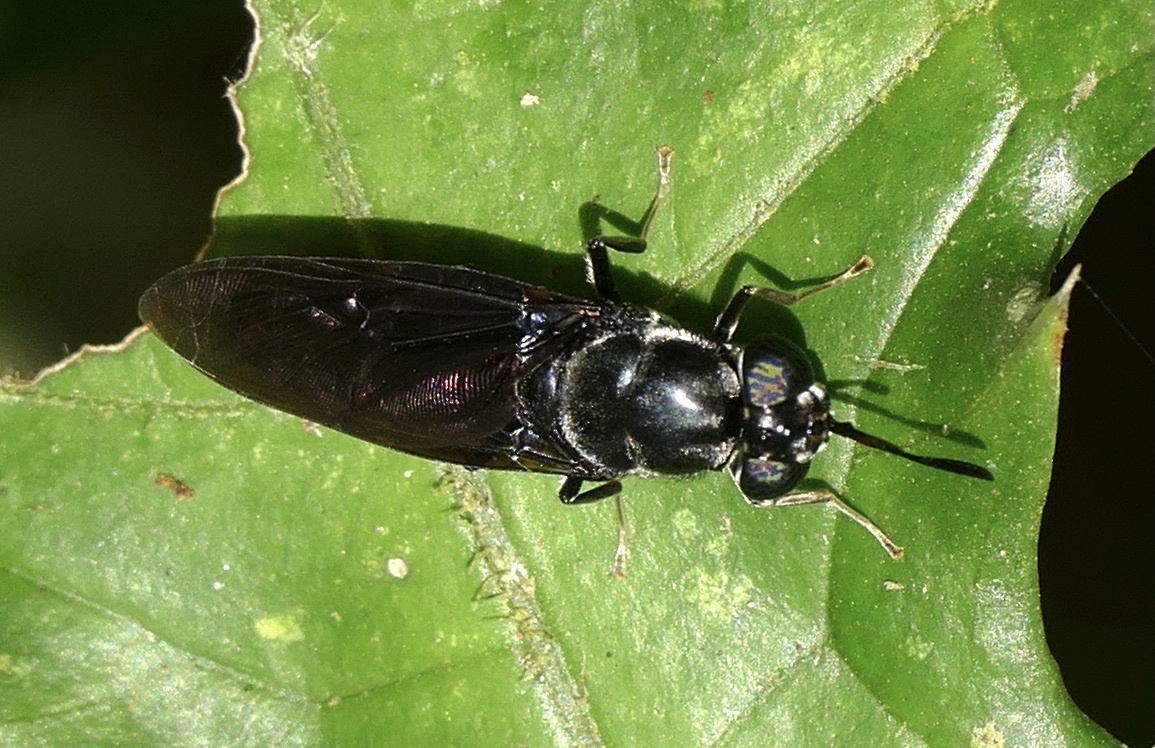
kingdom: Animalia
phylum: Arthropoda
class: Insecta
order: Diptera
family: Stratiomyidae
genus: Hermetia
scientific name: Hermetia illucens
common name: Black soldier fly
